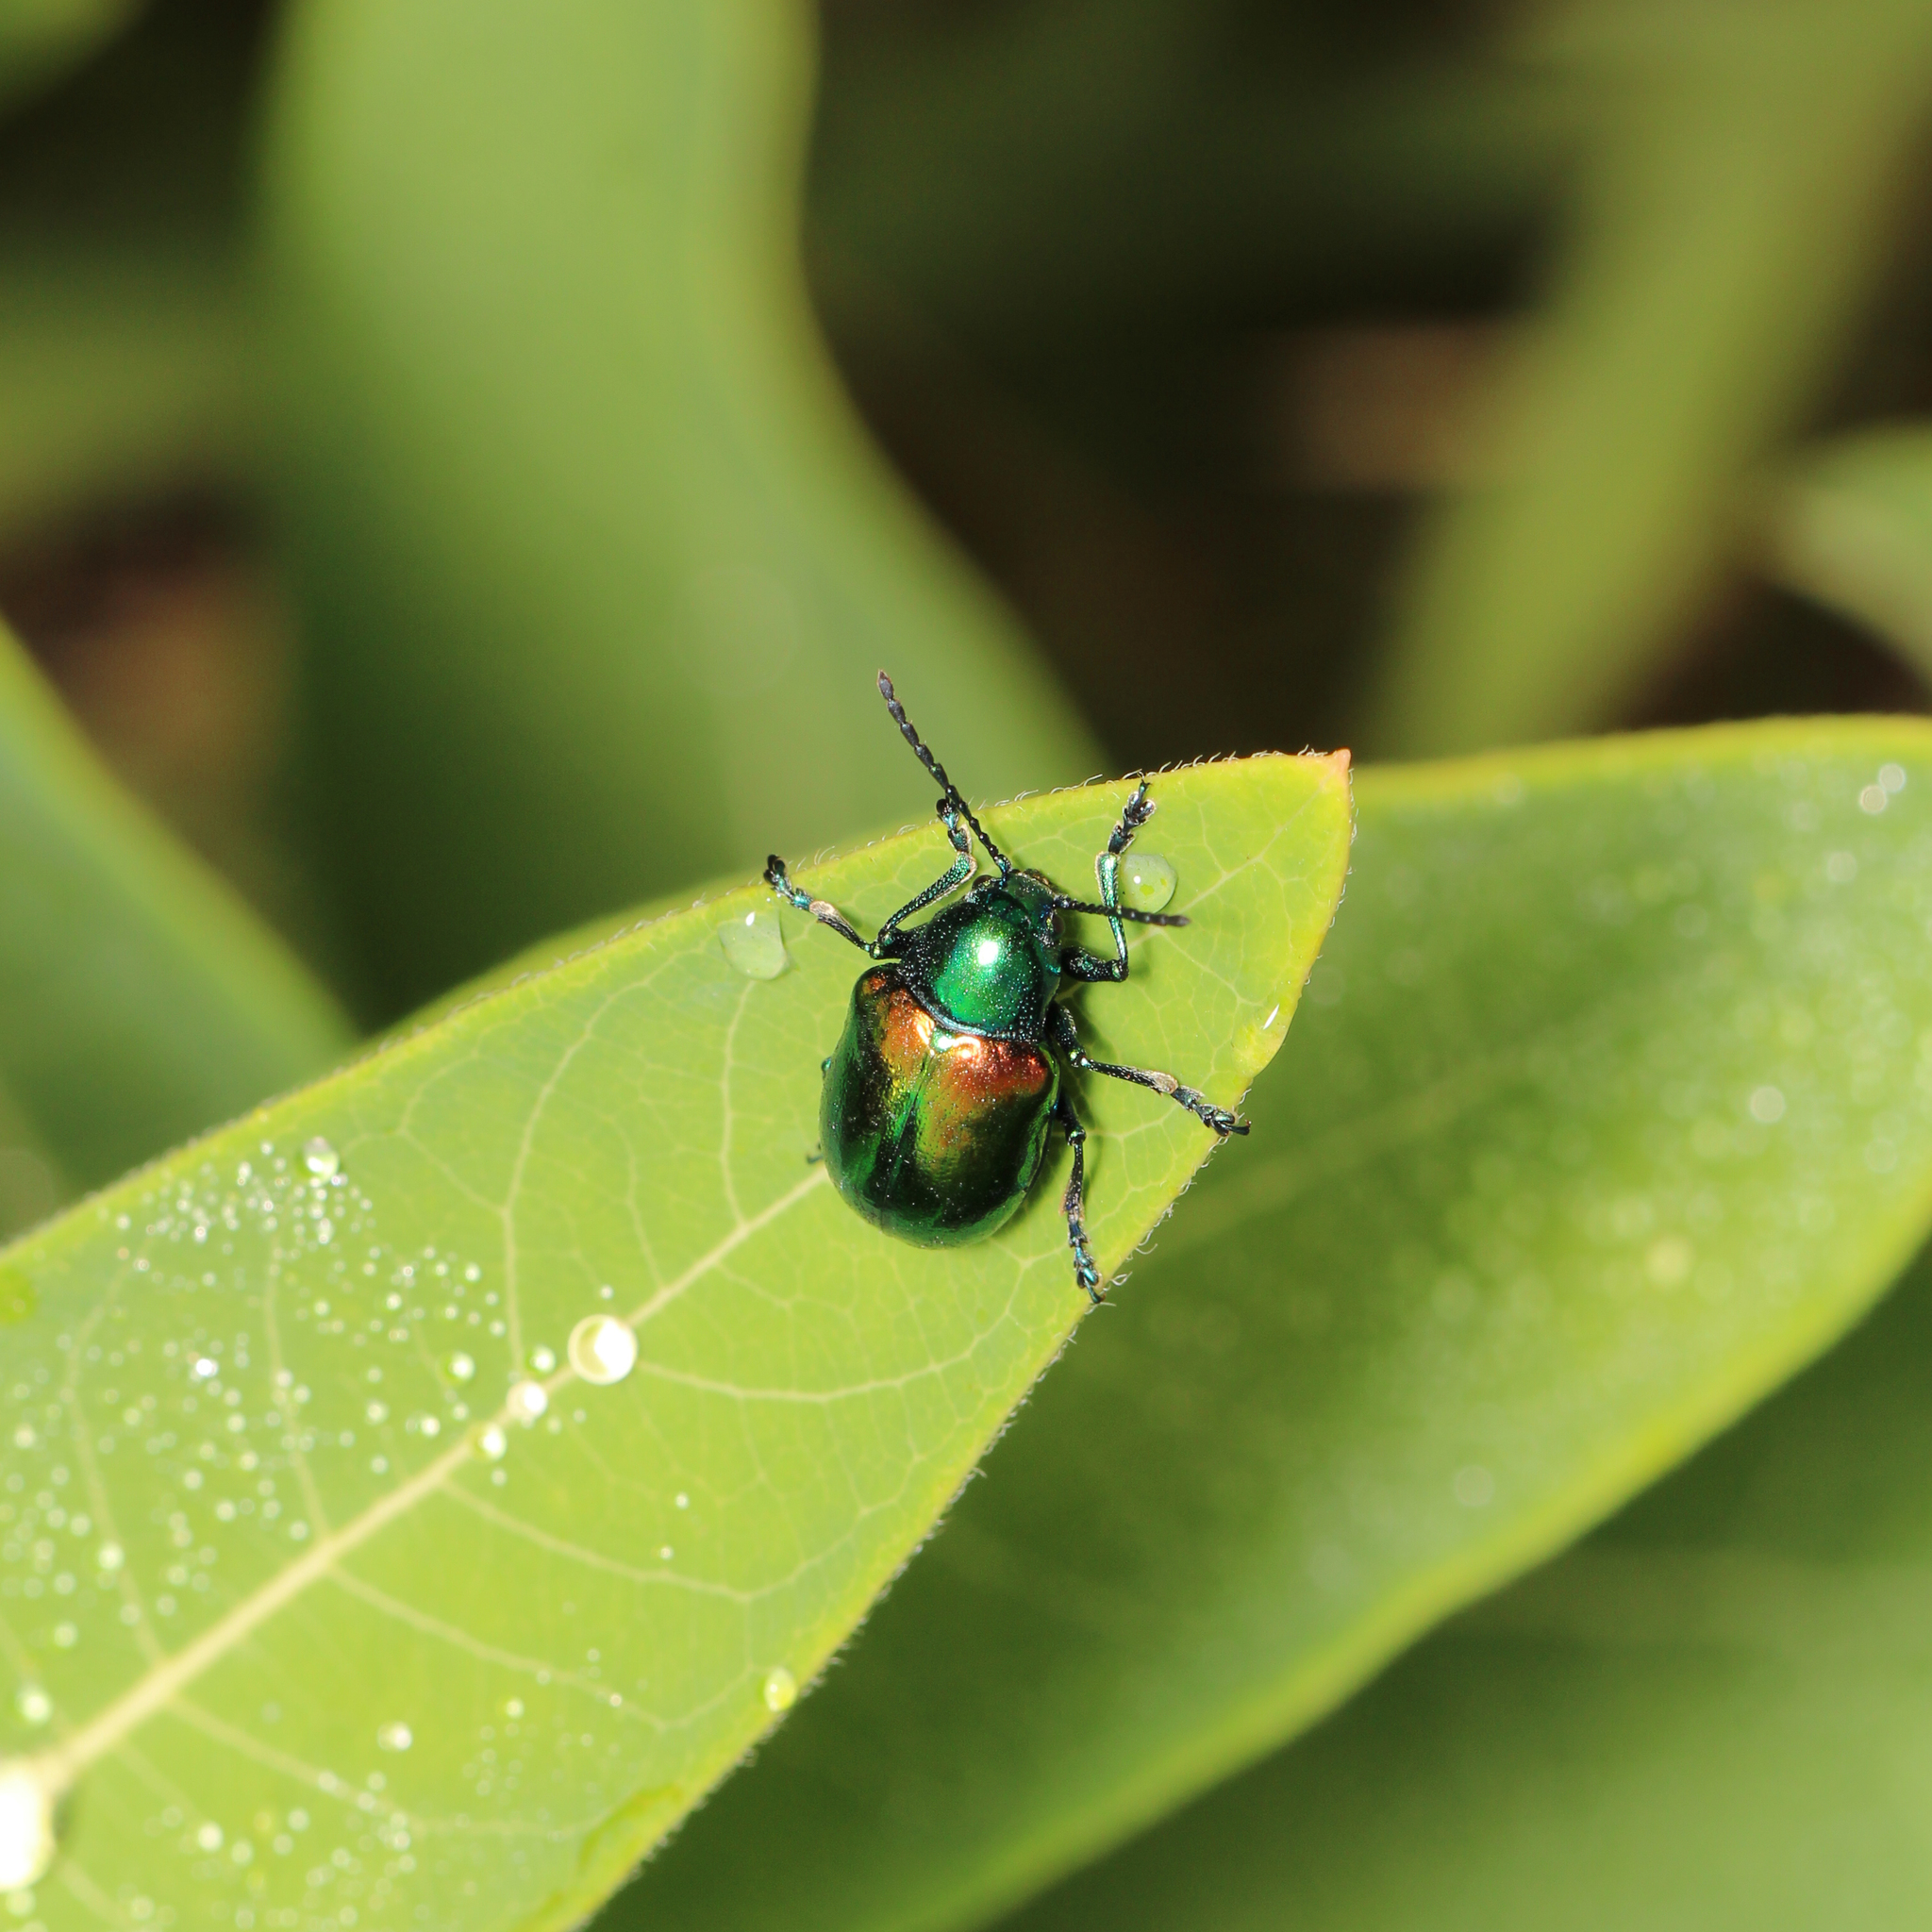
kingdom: Animalia
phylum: Arthropoda
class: Insecta
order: Coleoptera
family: Chrysomelidae
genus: Chrysochus
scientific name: Chrysochus auratus
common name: Dogbane leaf beetle
